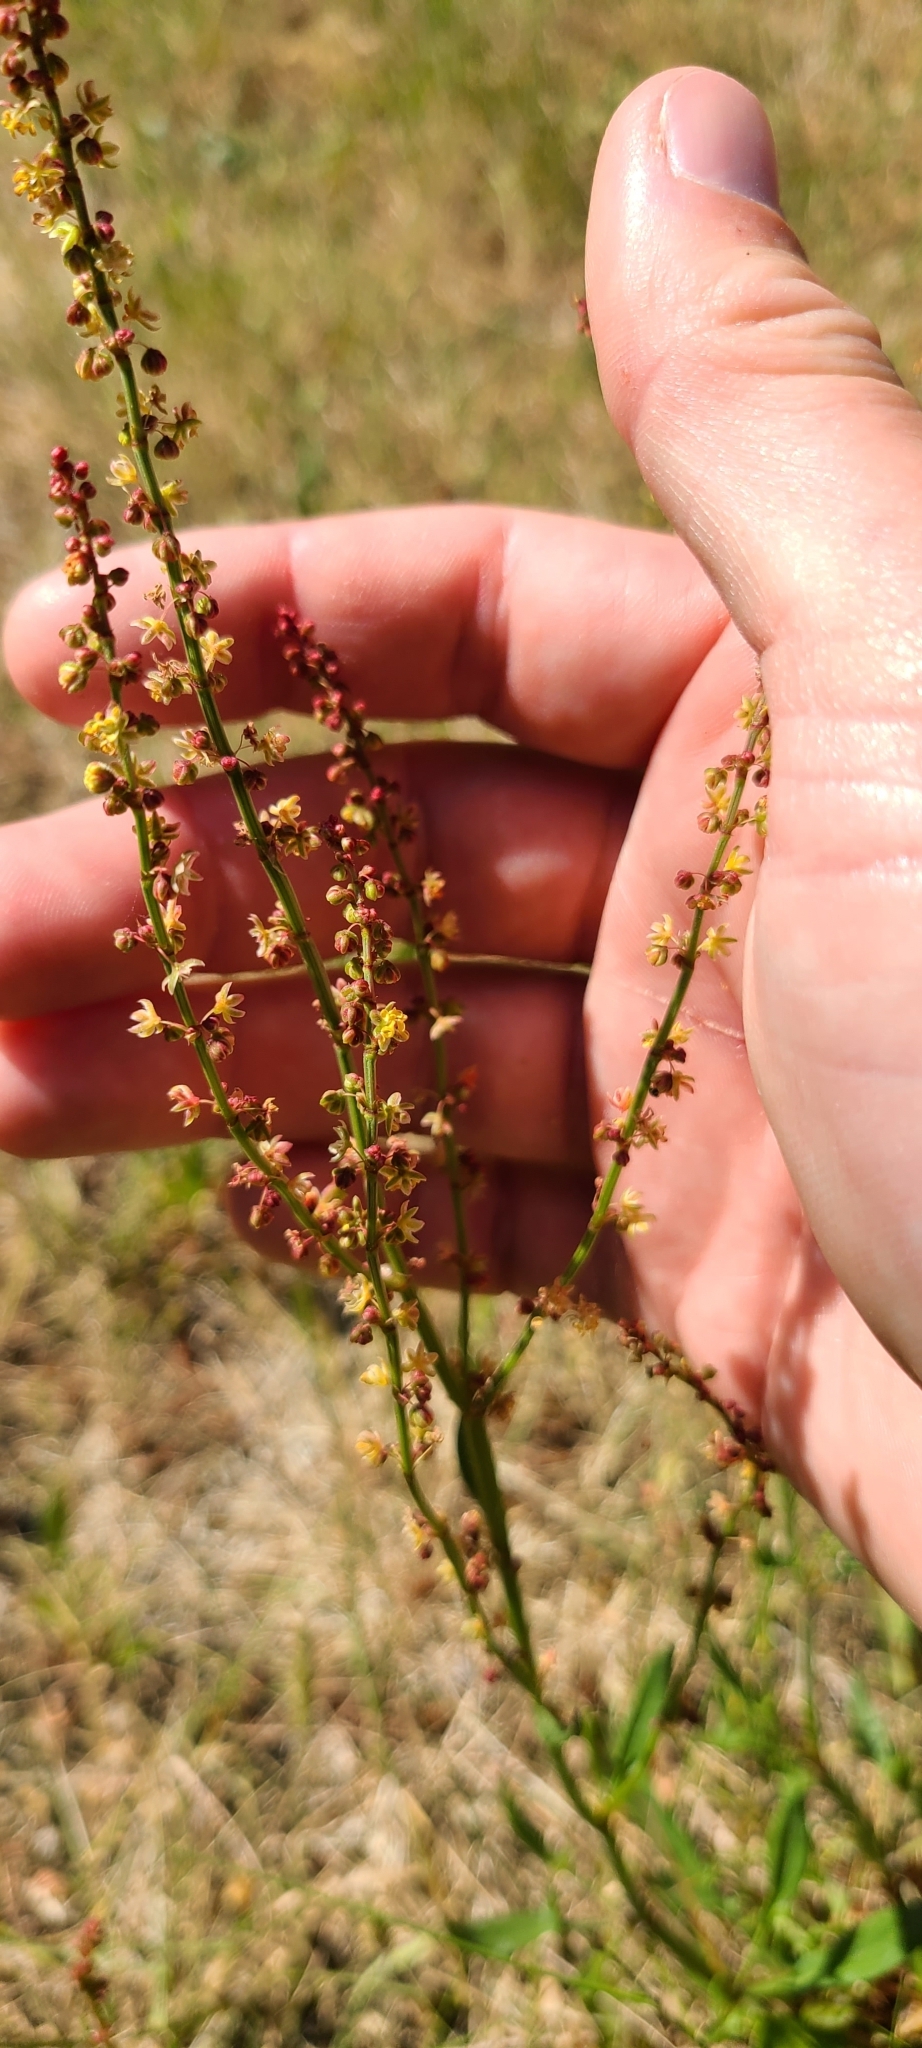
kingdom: Plantae
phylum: Tracheophyta
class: Magnoliopsida
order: Caryophyllales
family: Polygonaceae
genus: Rumex
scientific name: Rumex acetosella
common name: Common sheep sorrel
